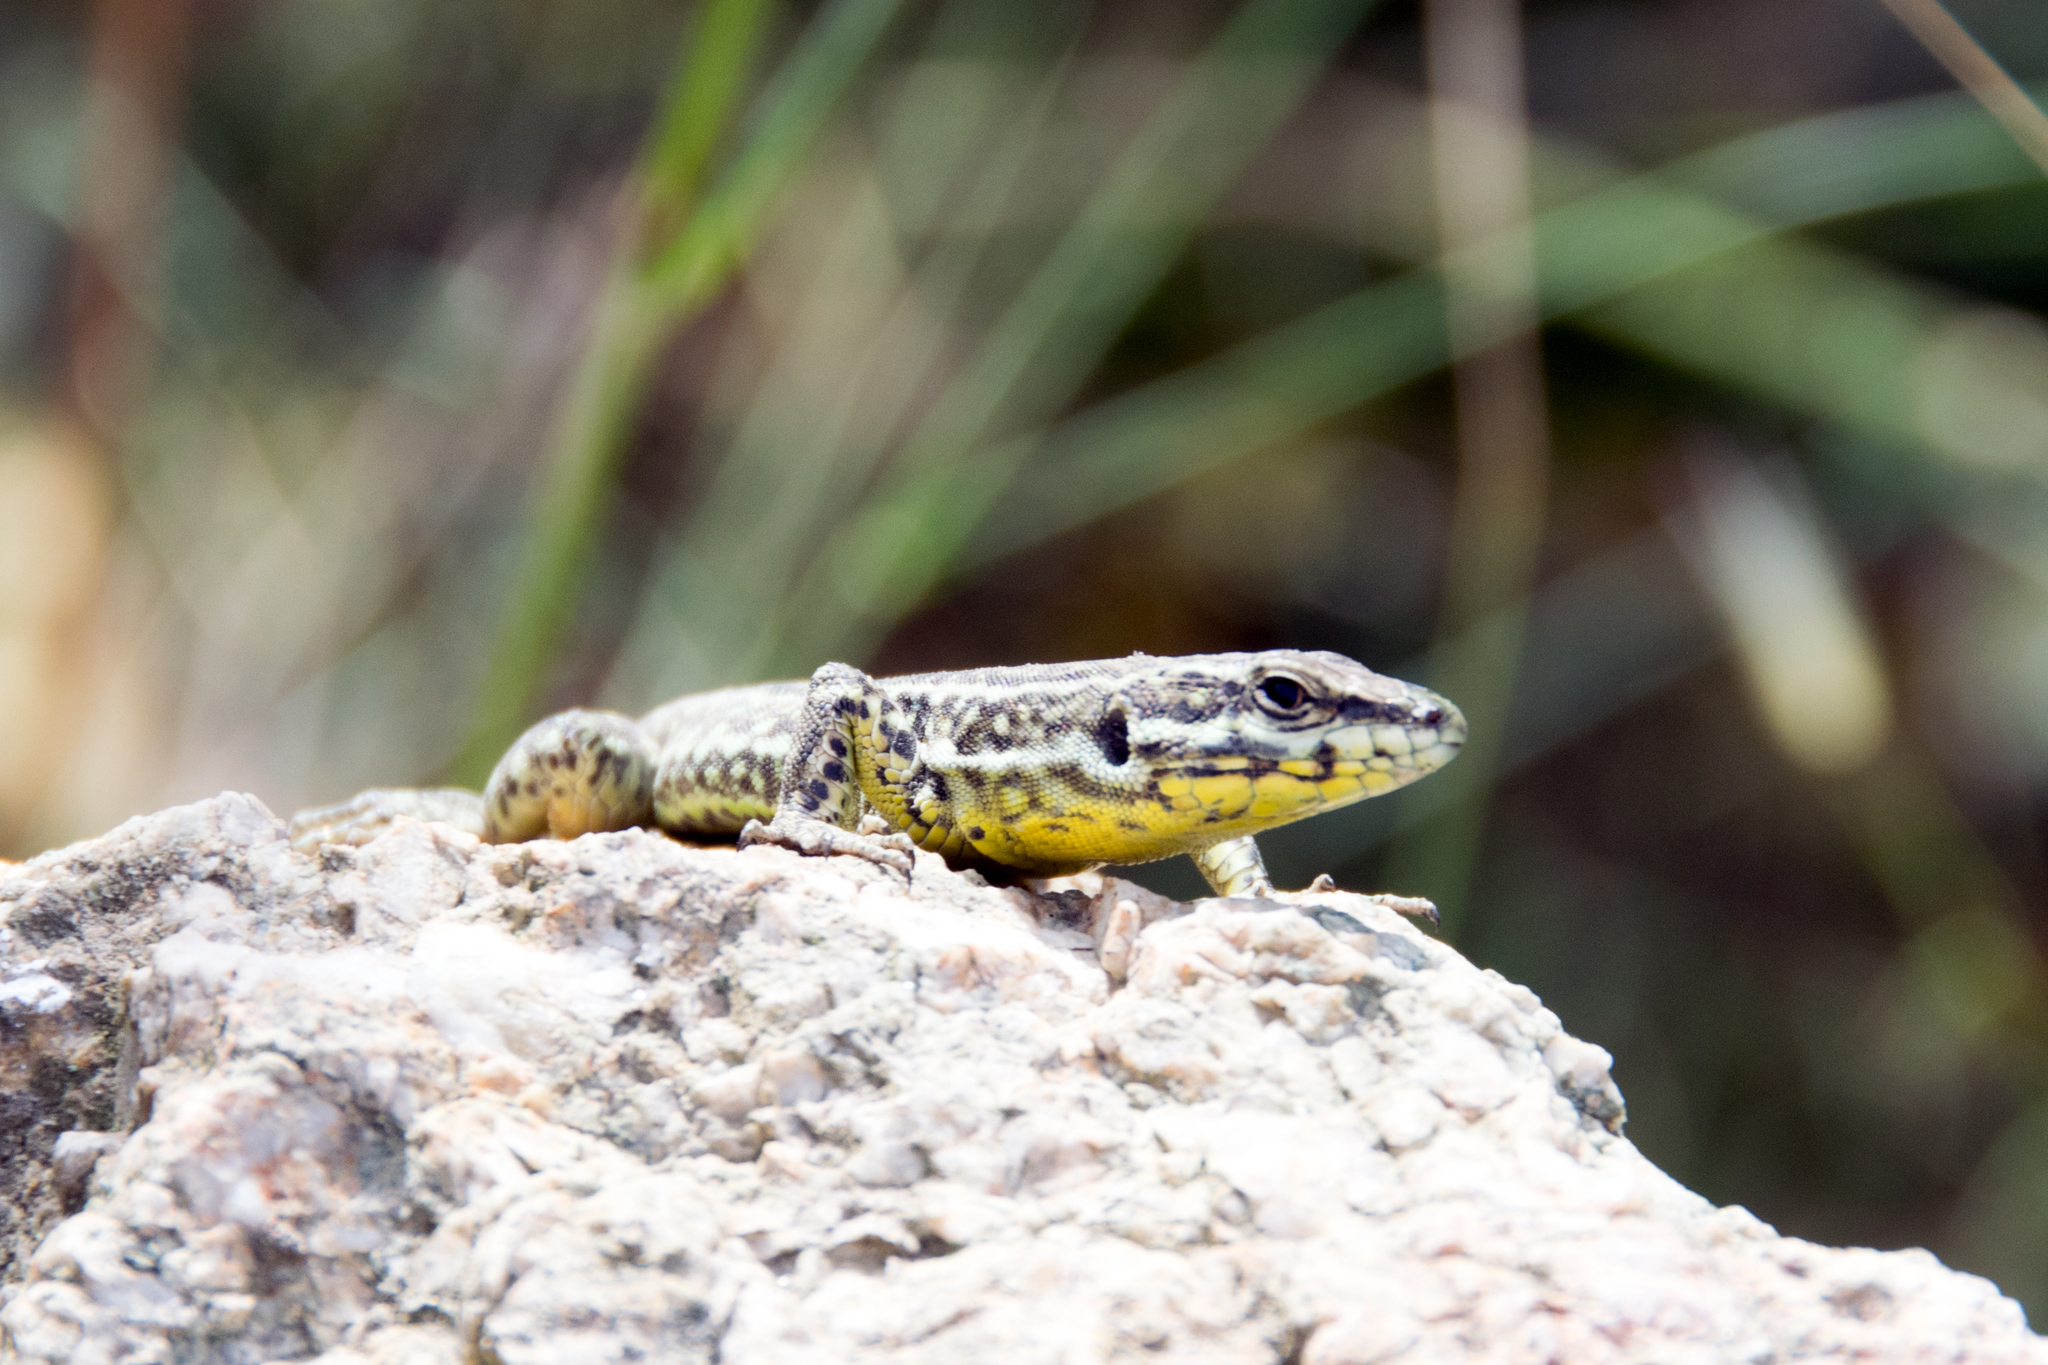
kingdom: Animalia
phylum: Chordata
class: Squamata
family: Lacertidae
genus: Podarcis
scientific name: Podarcis tiliguerta
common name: Tyrrhenian wall lizard
